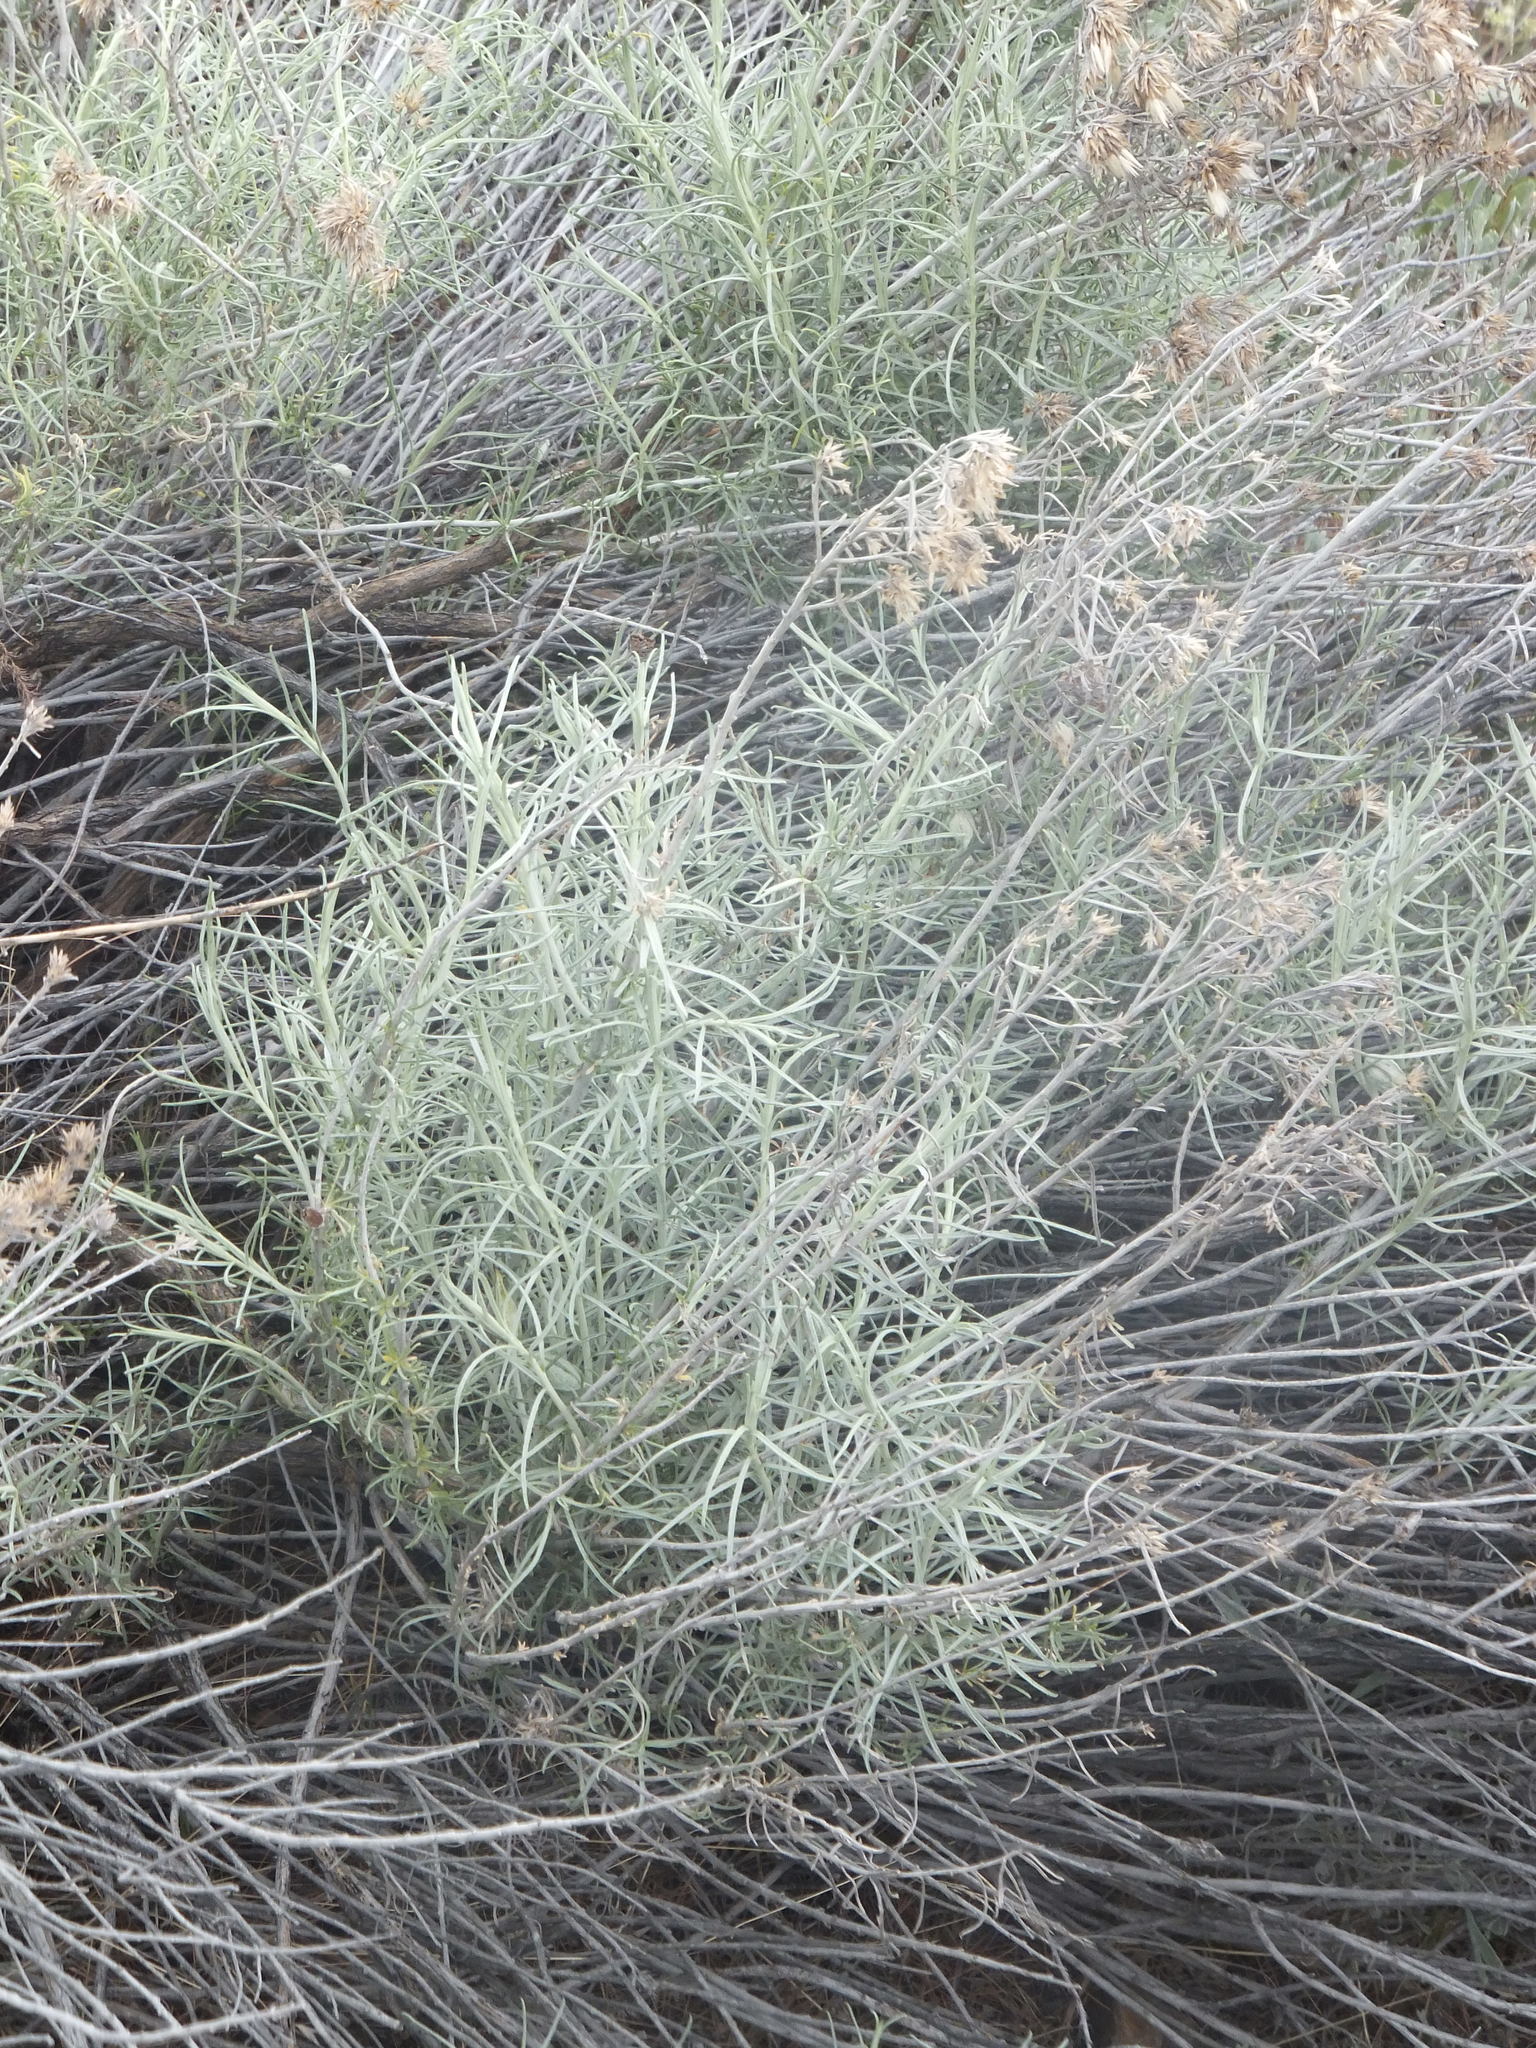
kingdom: Plantae
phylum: Tracheophyta
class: Magnoliopsida
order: Asterales
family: Asteraceae
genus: Ericameria
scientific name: Ericameria nauseosa
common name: Rubber rabbitbrush
